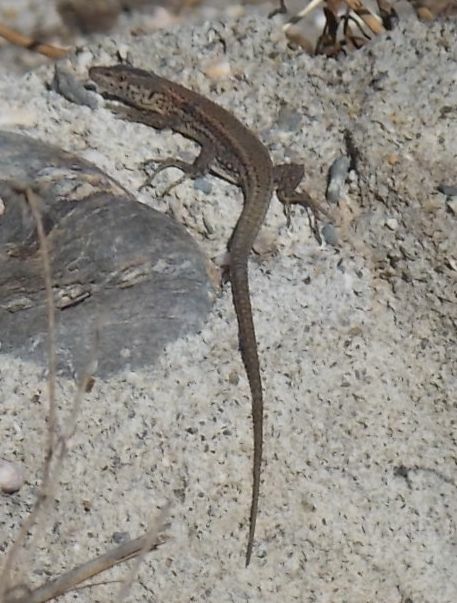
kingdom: Animalia
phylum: Chordata
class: Squamata
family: Lacertidae
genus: Podarcis
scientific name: Podarcis vaucheri
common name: Vaucher's wall lizard
